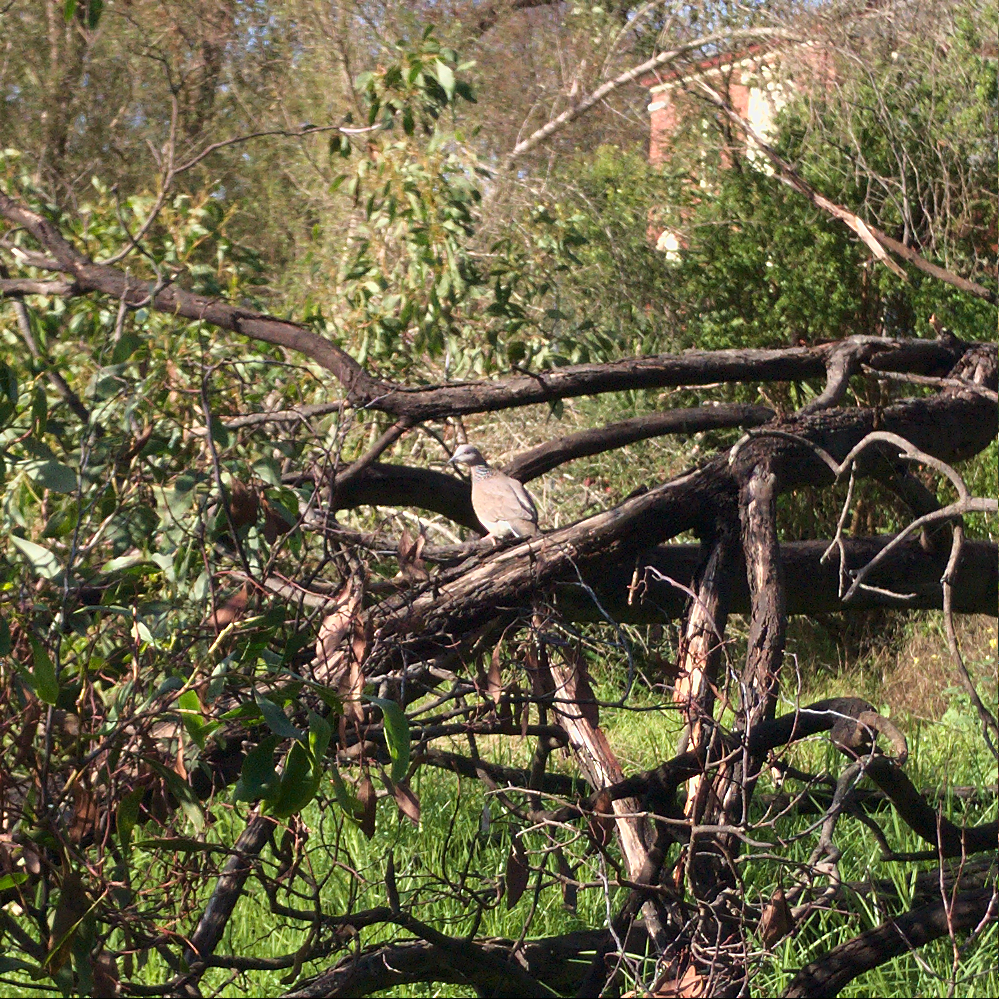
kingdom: Animalia
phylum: Chordata
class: Aves
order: Columbiformes
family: Columbidae
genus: Spilopelia
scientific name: Spilopelia chinensis
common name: Spotted dove
